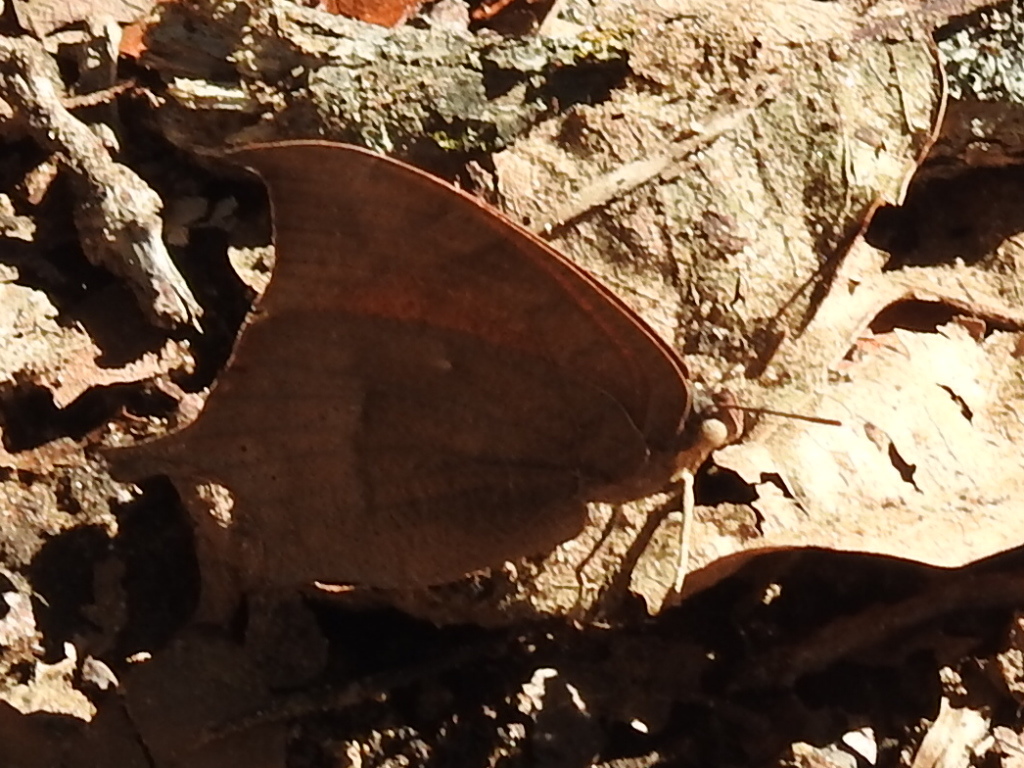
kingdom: Animalia
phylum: Arthropoda
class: Insecta
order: Lepidoptera
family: Nymphalidae
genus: Anaea
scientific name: Anaea andria
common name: Goatweed leafwing
